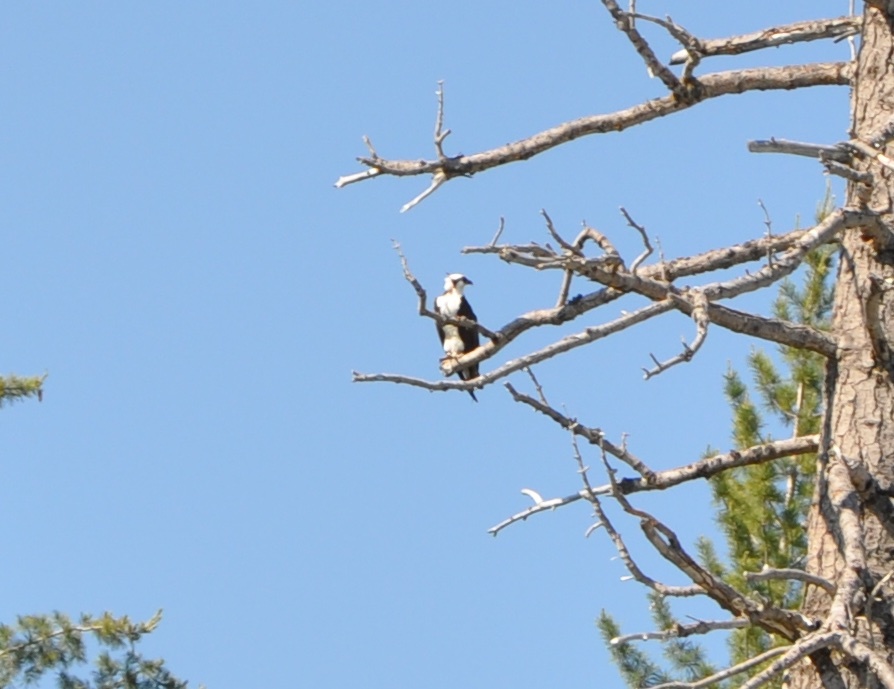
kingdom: Animalia
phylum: Chordata
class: Aves
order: Accipitriformes
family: Pandionidae
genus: Pandion
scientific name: Pandion haliaetus
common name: Osprey
